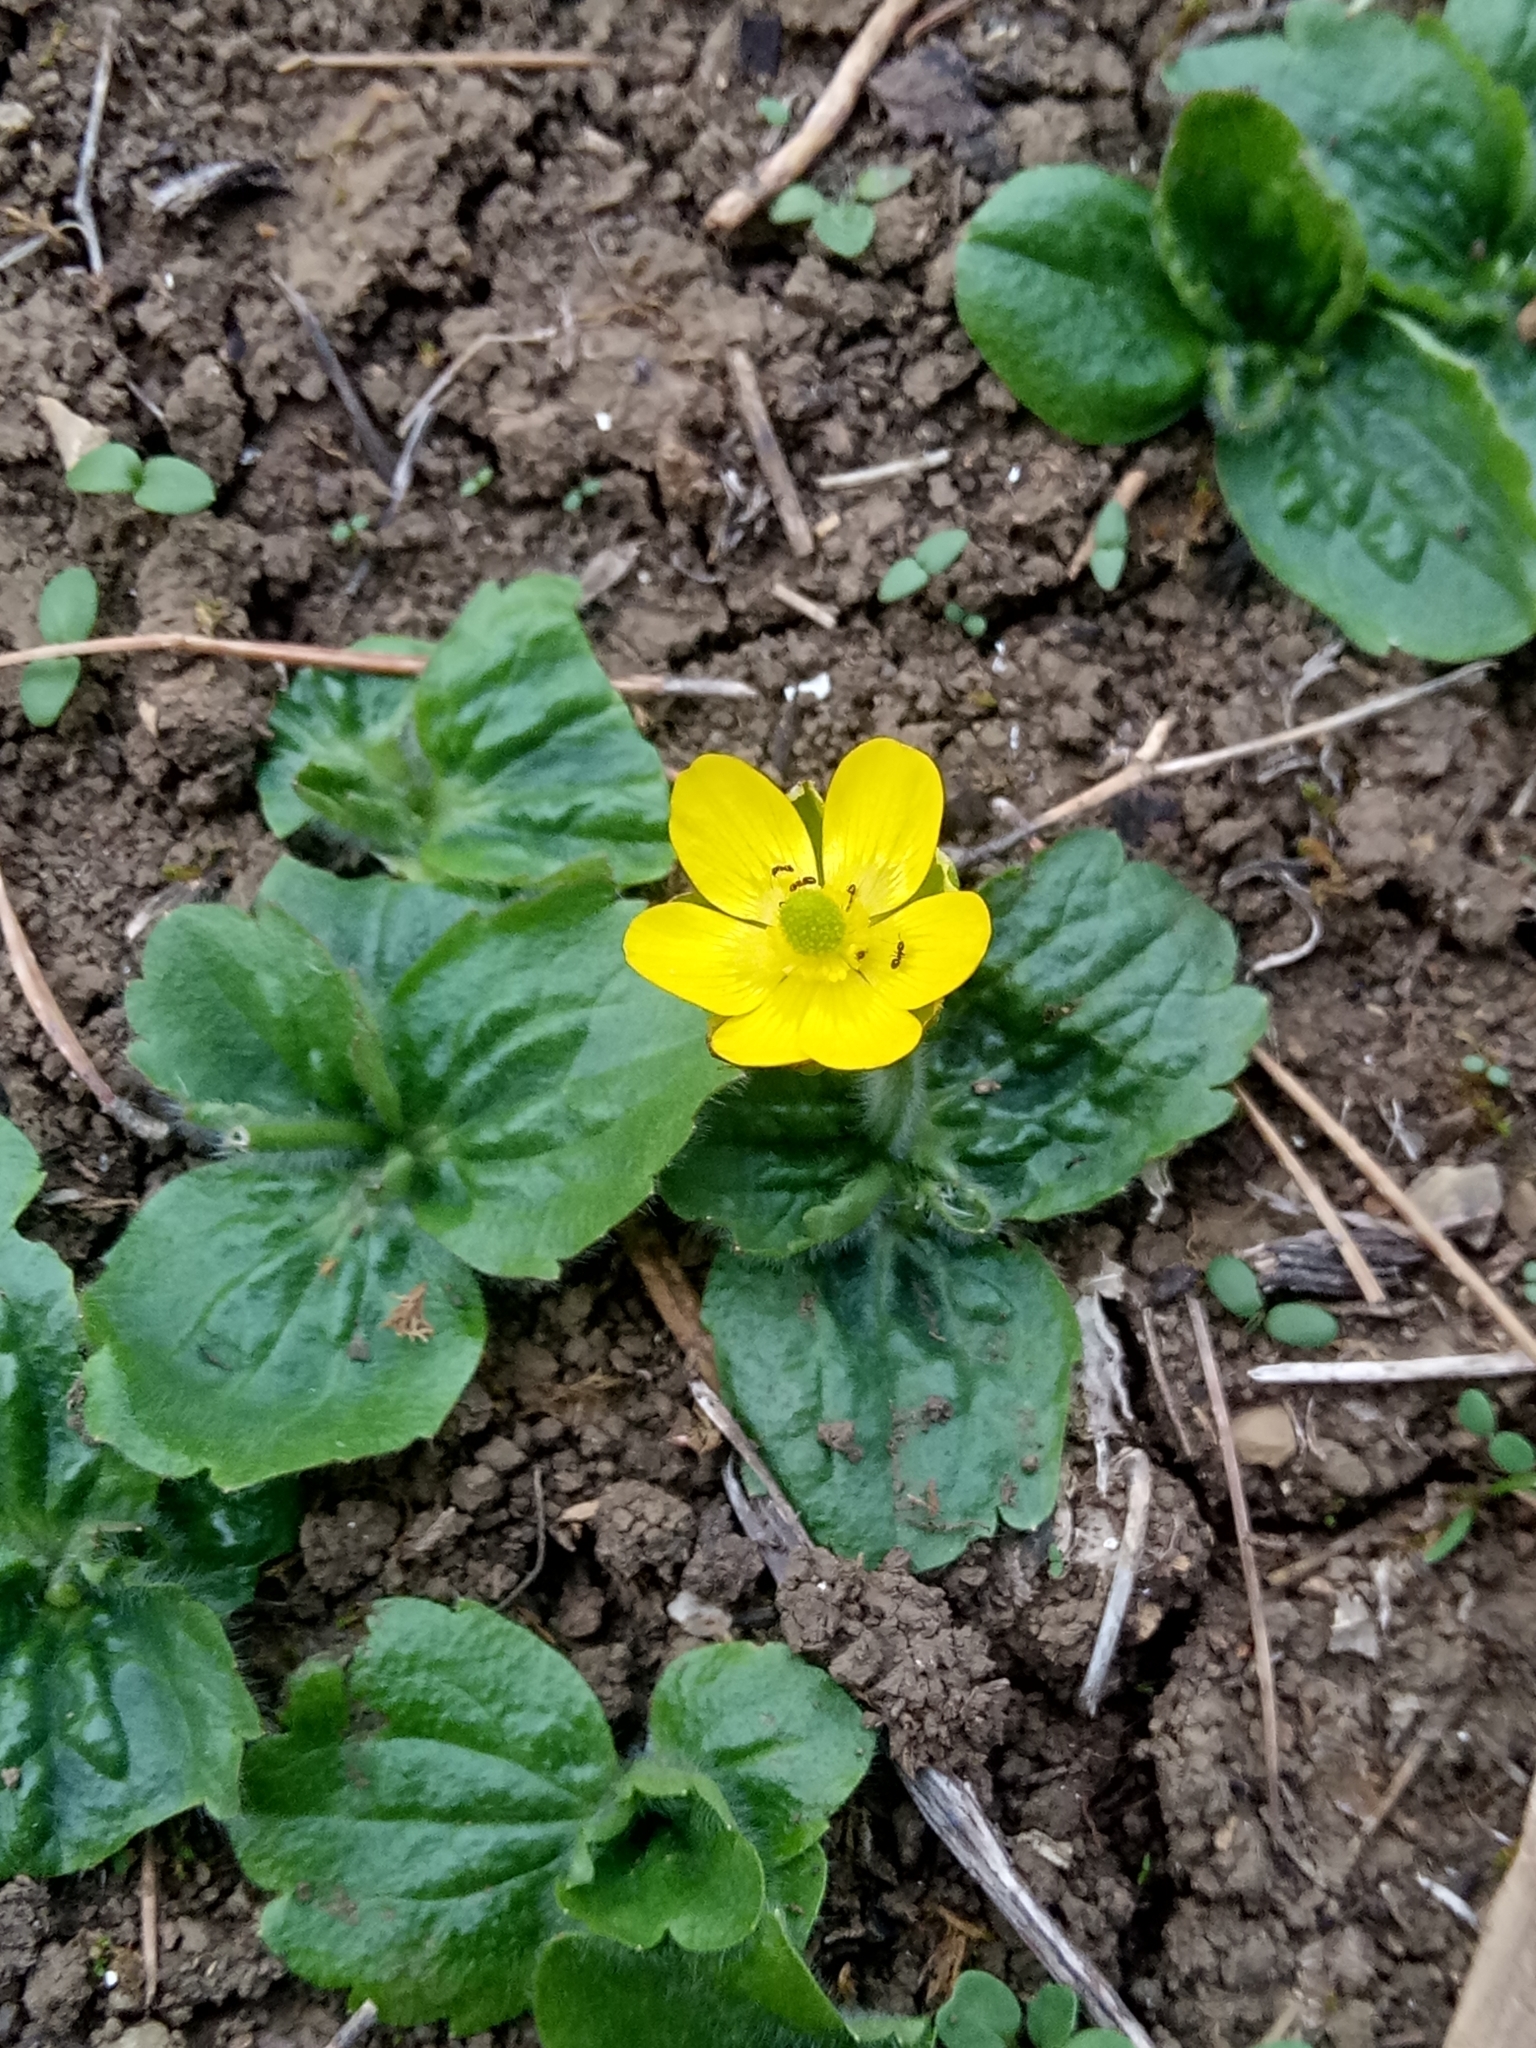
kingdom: Plantae
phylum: Tracheophyta
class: Magnoliopsida
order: Ranunculales
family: Ranunculaceae
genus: Ranunculus
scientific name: Ranunculus bullatus
